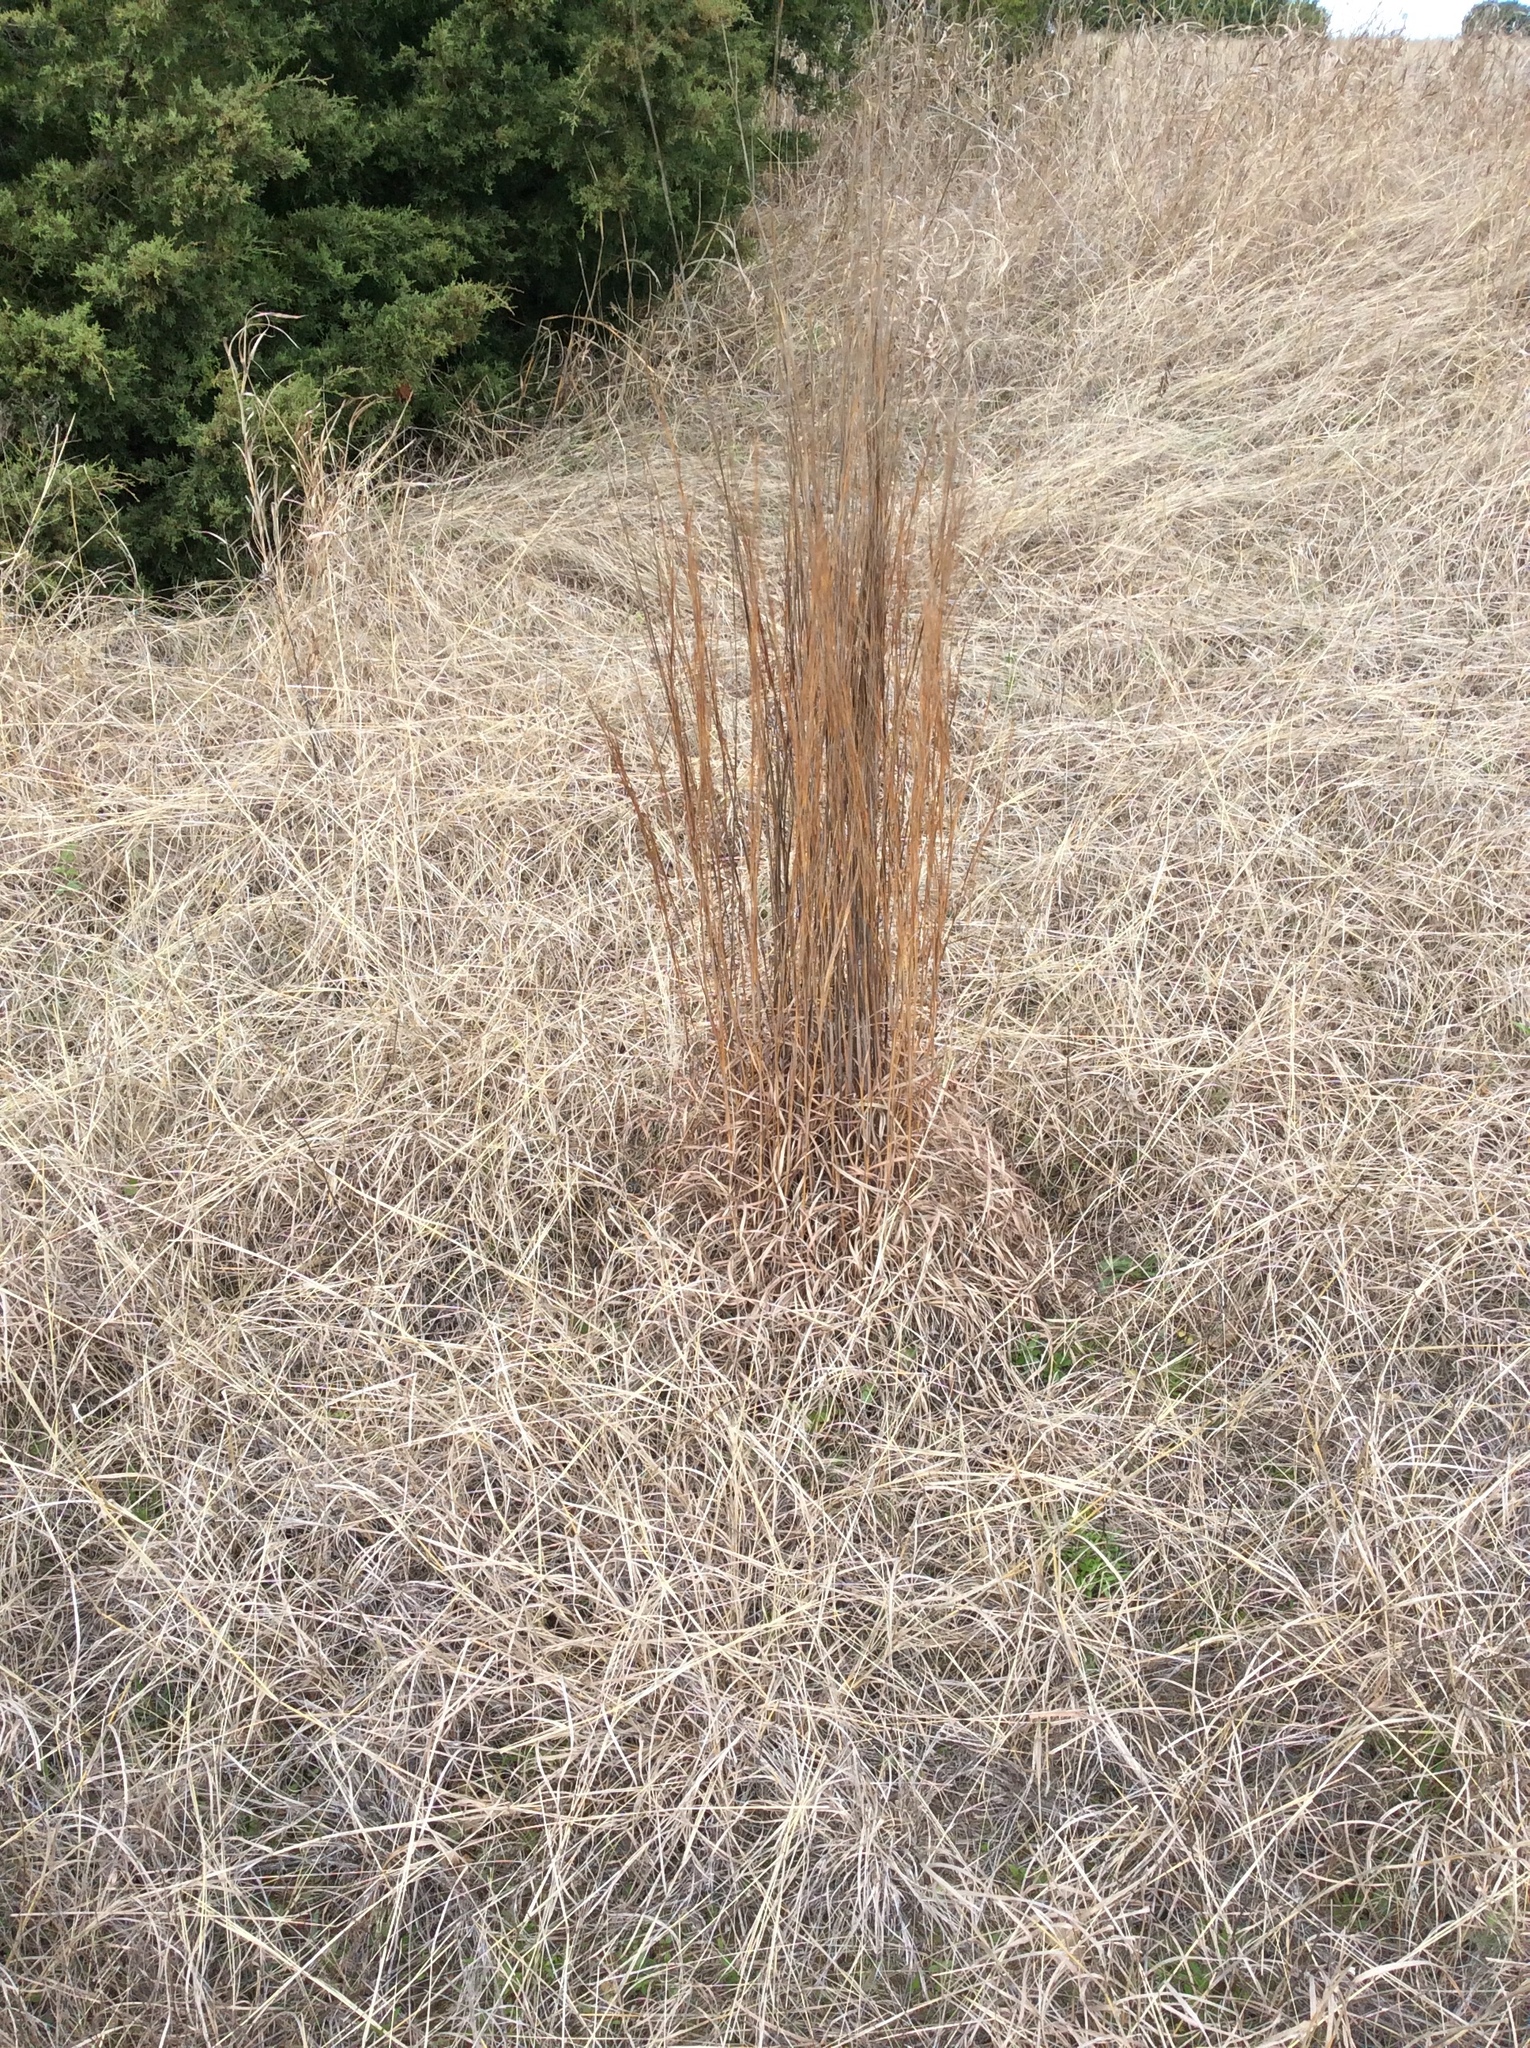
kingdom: Plantae
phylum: Tracheophyta
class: Liliopsida
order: Poales
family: Poaceae
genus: Schizachyrium
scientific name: Schizachyrium scoparium
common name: Little bluestem
